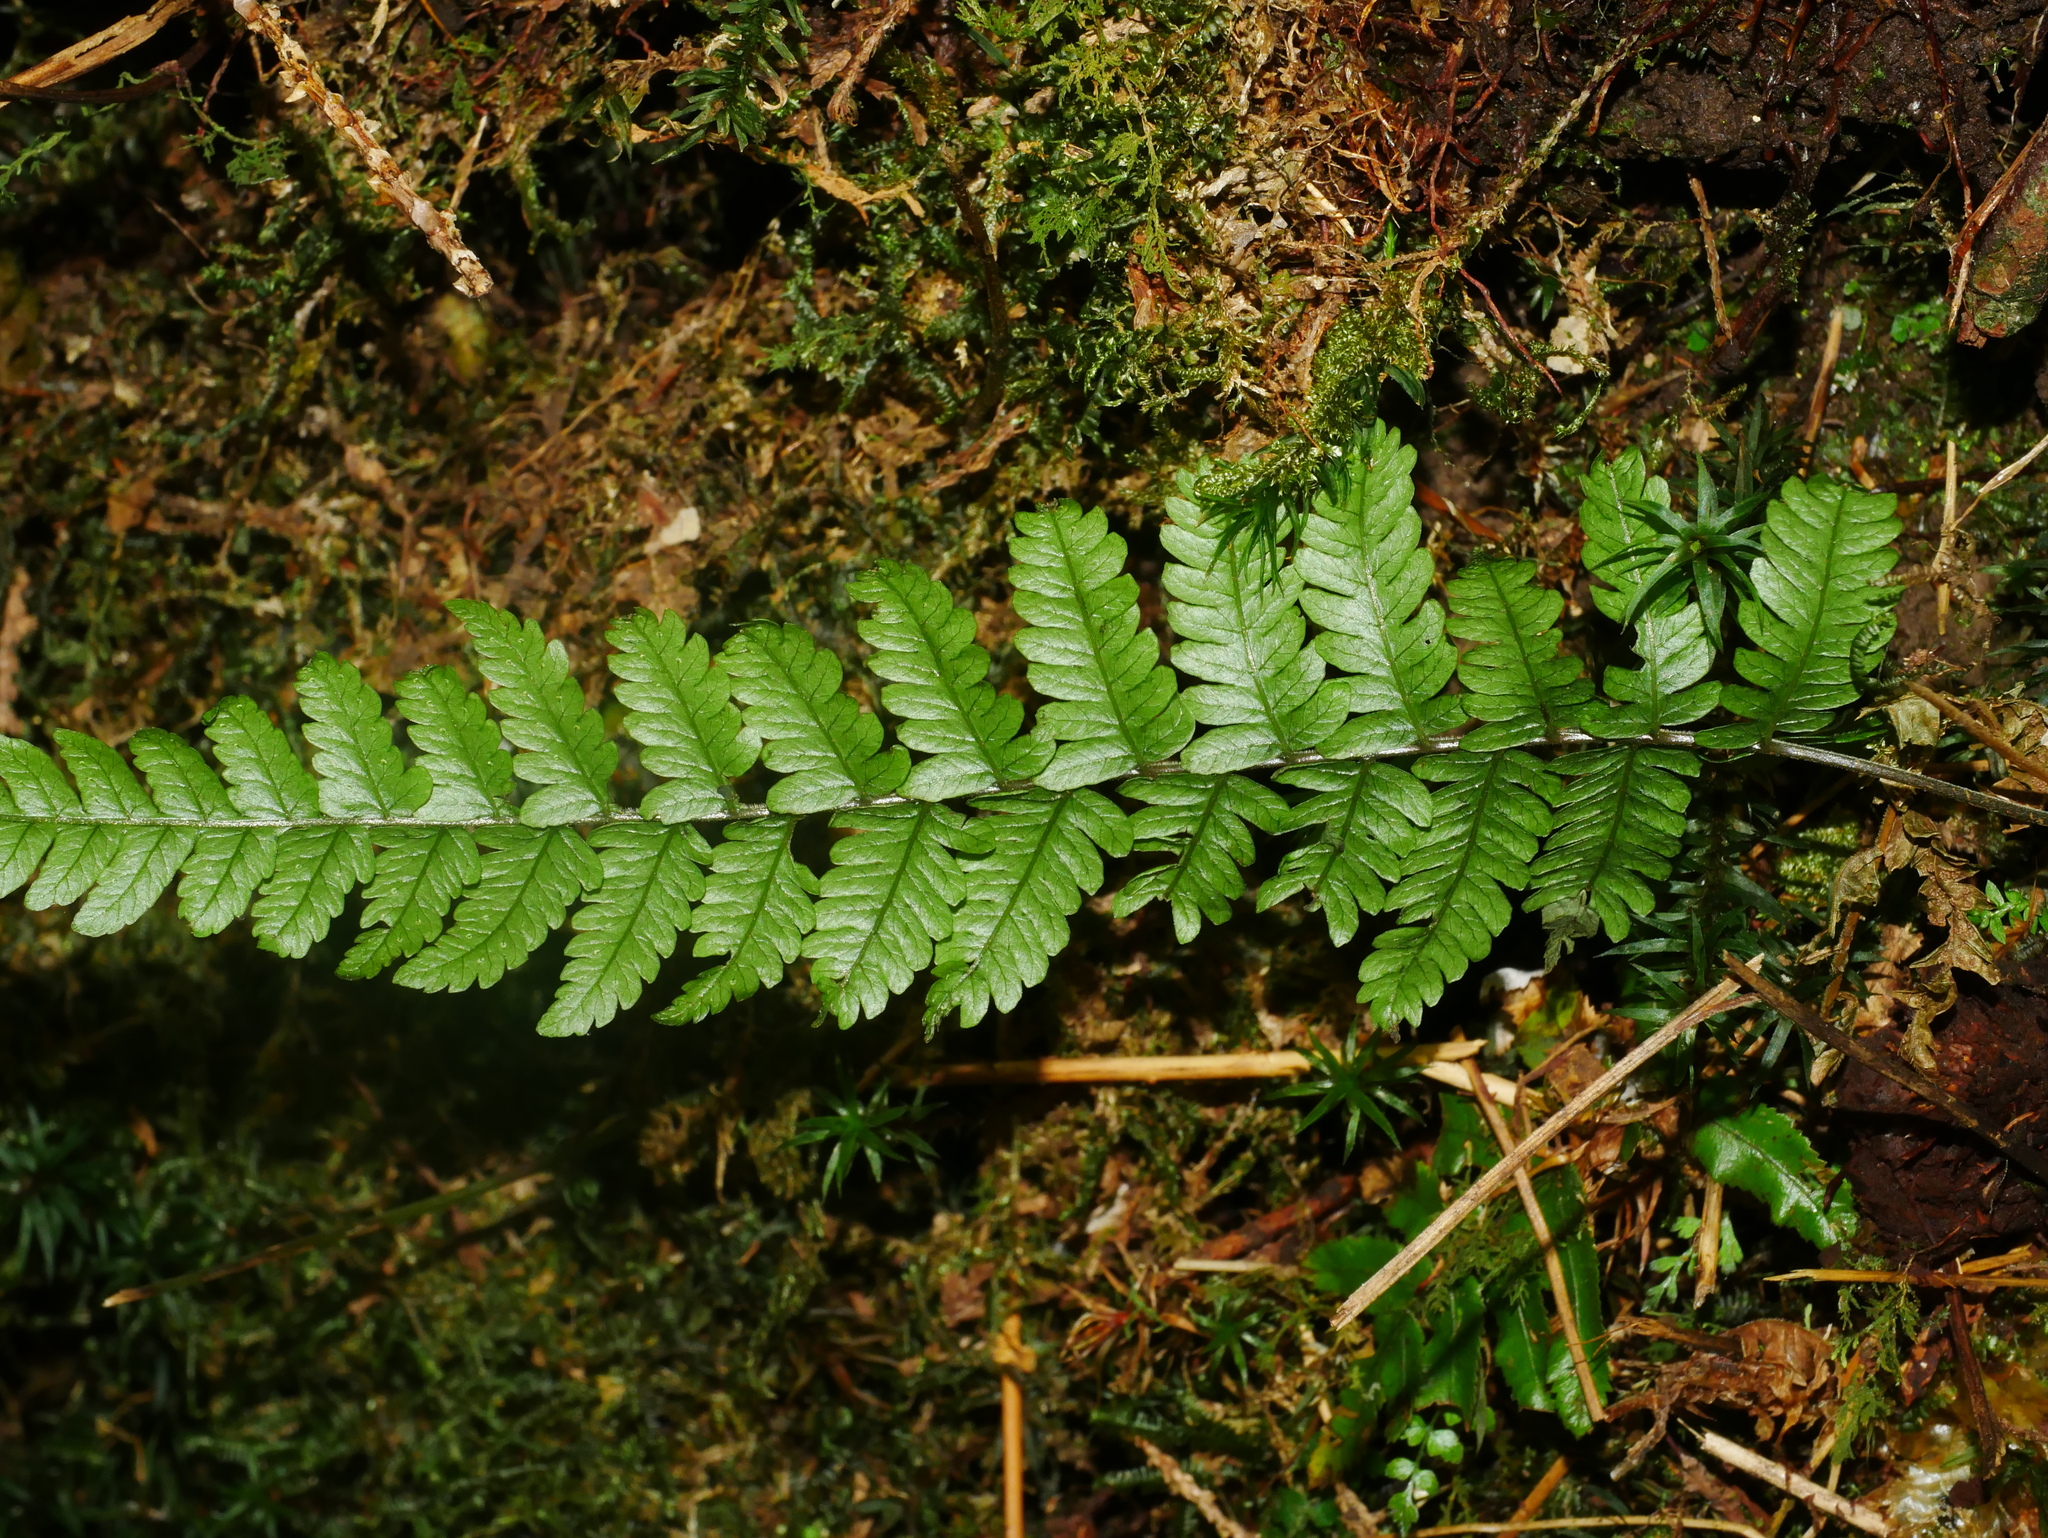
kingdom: Plantae
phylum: Tracheophyta
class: Polypodiopsida
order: Polypodiales
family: Thelypteridaceae
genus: Metathelypteris
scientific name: Metathelypteris gracilescens
